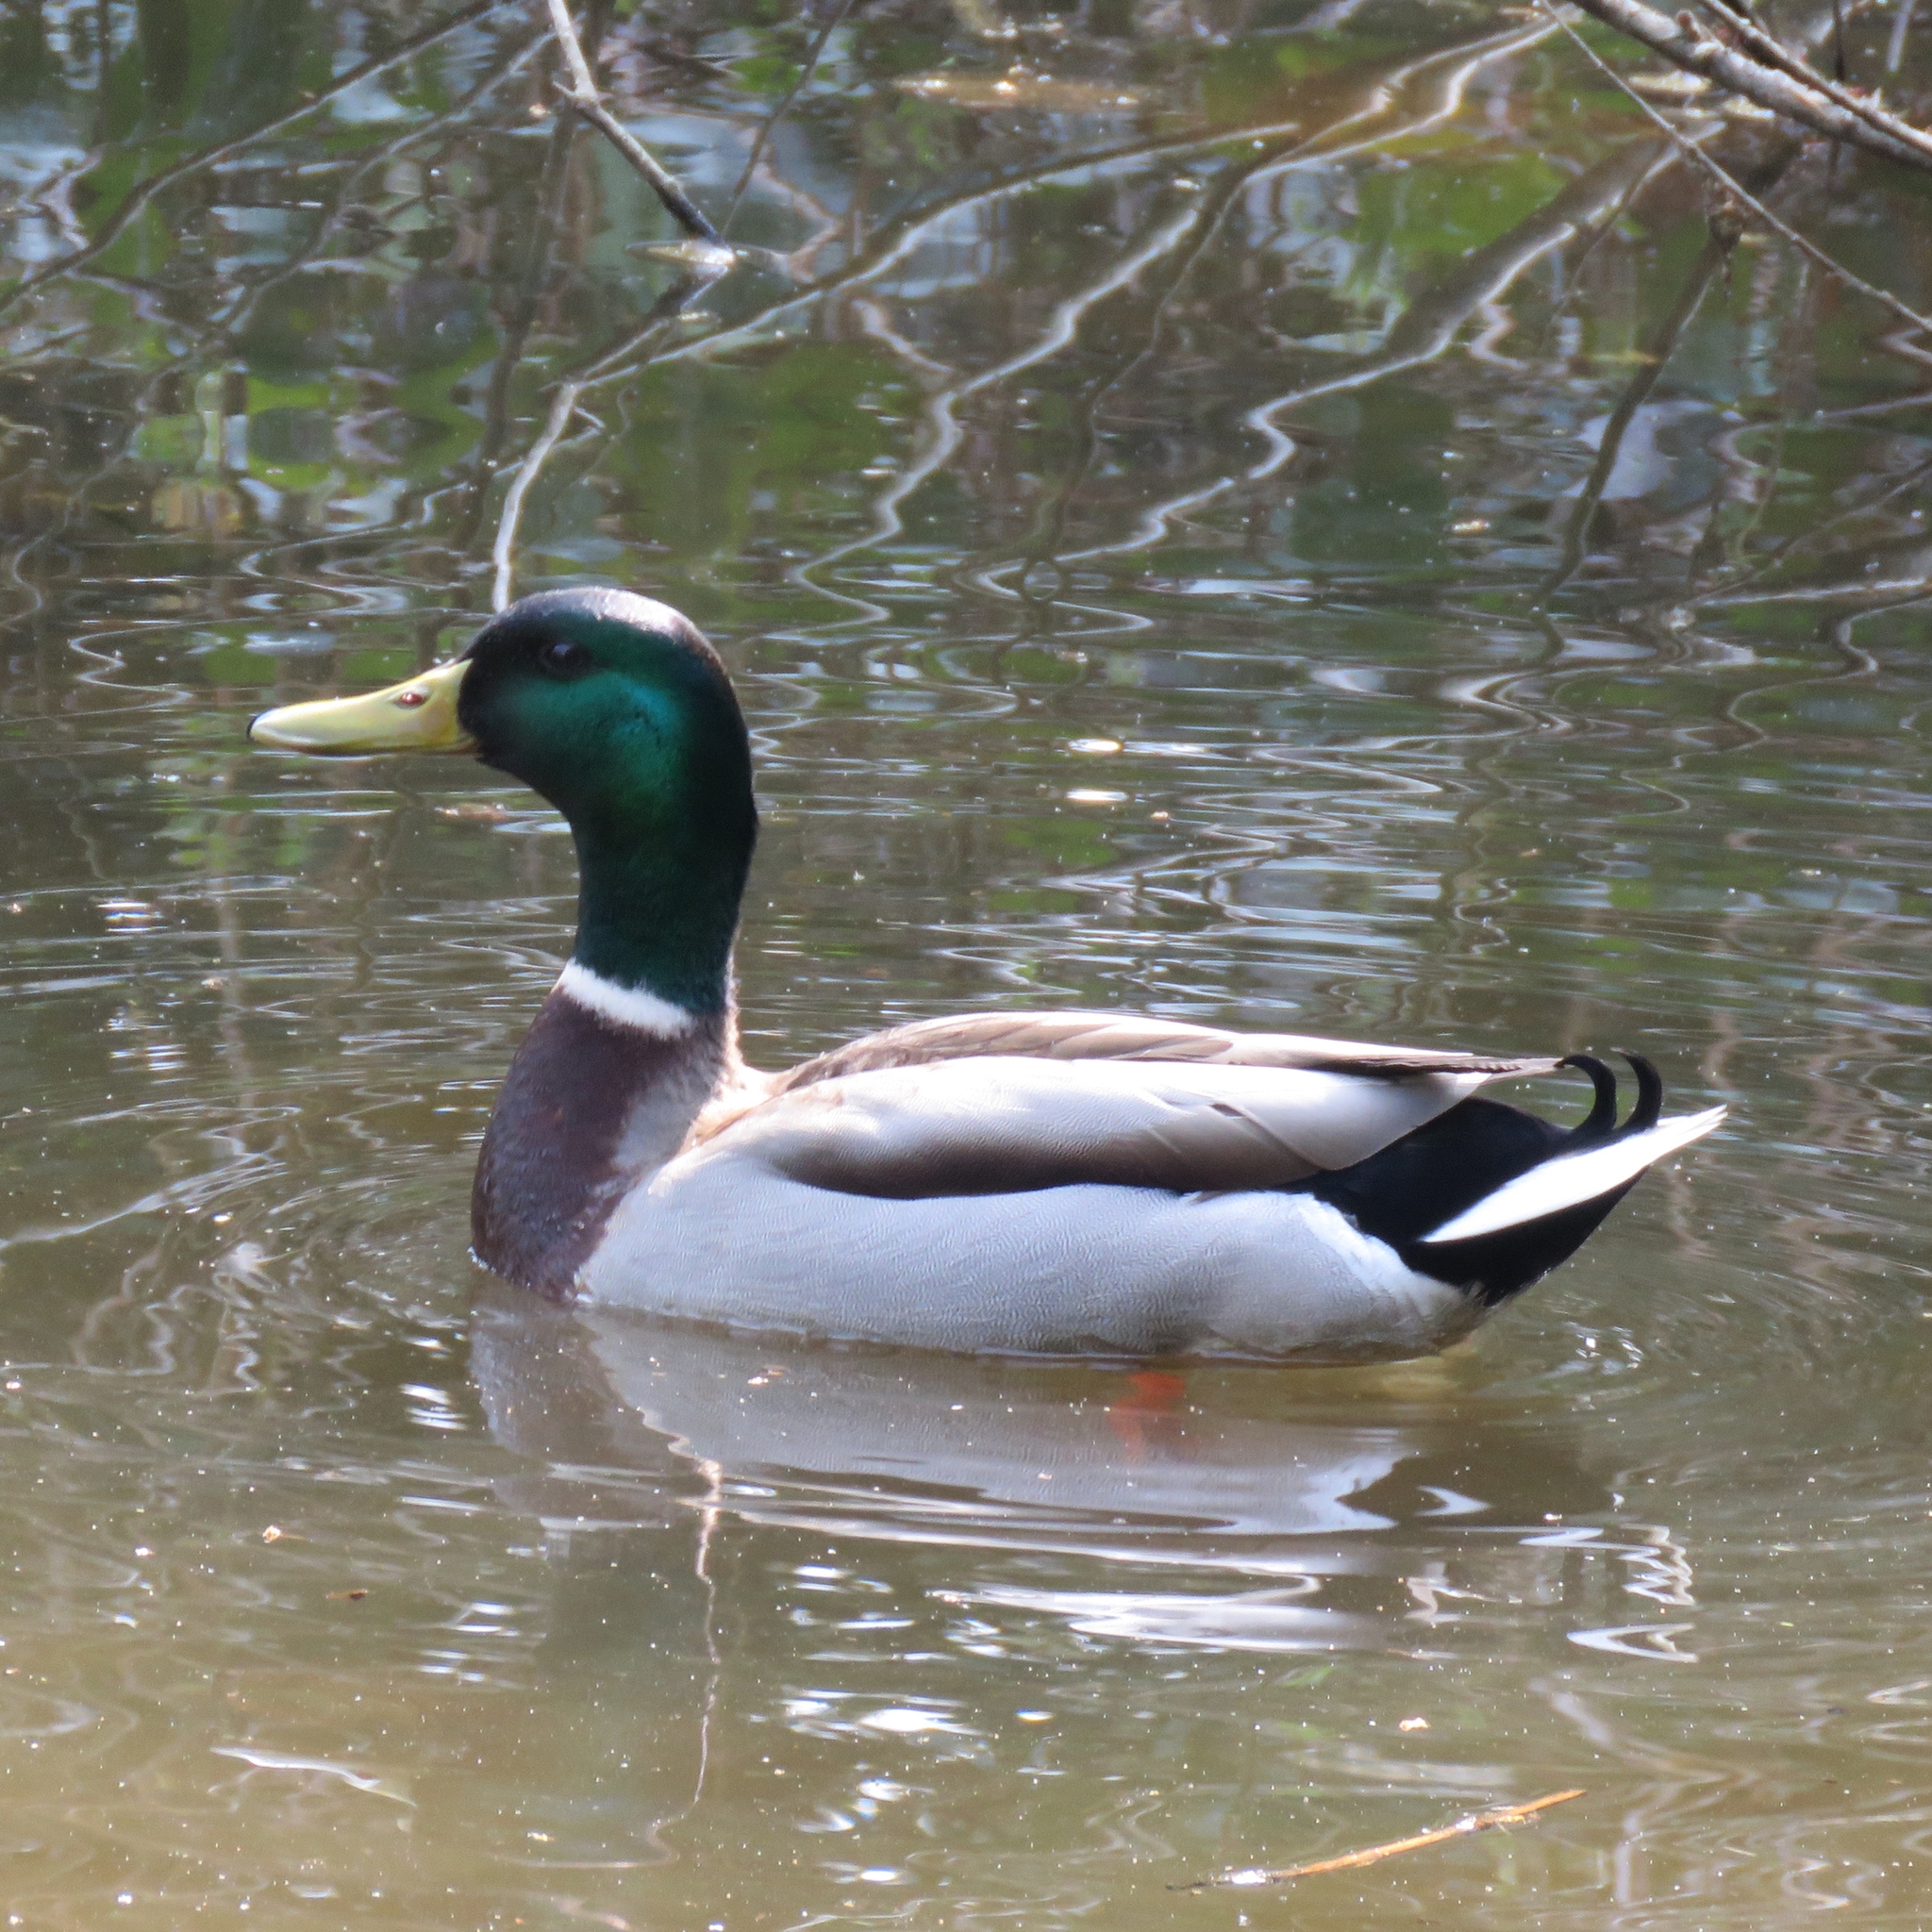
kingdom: Animalia
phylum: Chordata
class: Aves
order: Anseriformes
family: Anatidae
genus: Anas
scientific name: Anas platyrhynchos
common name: Mallard
